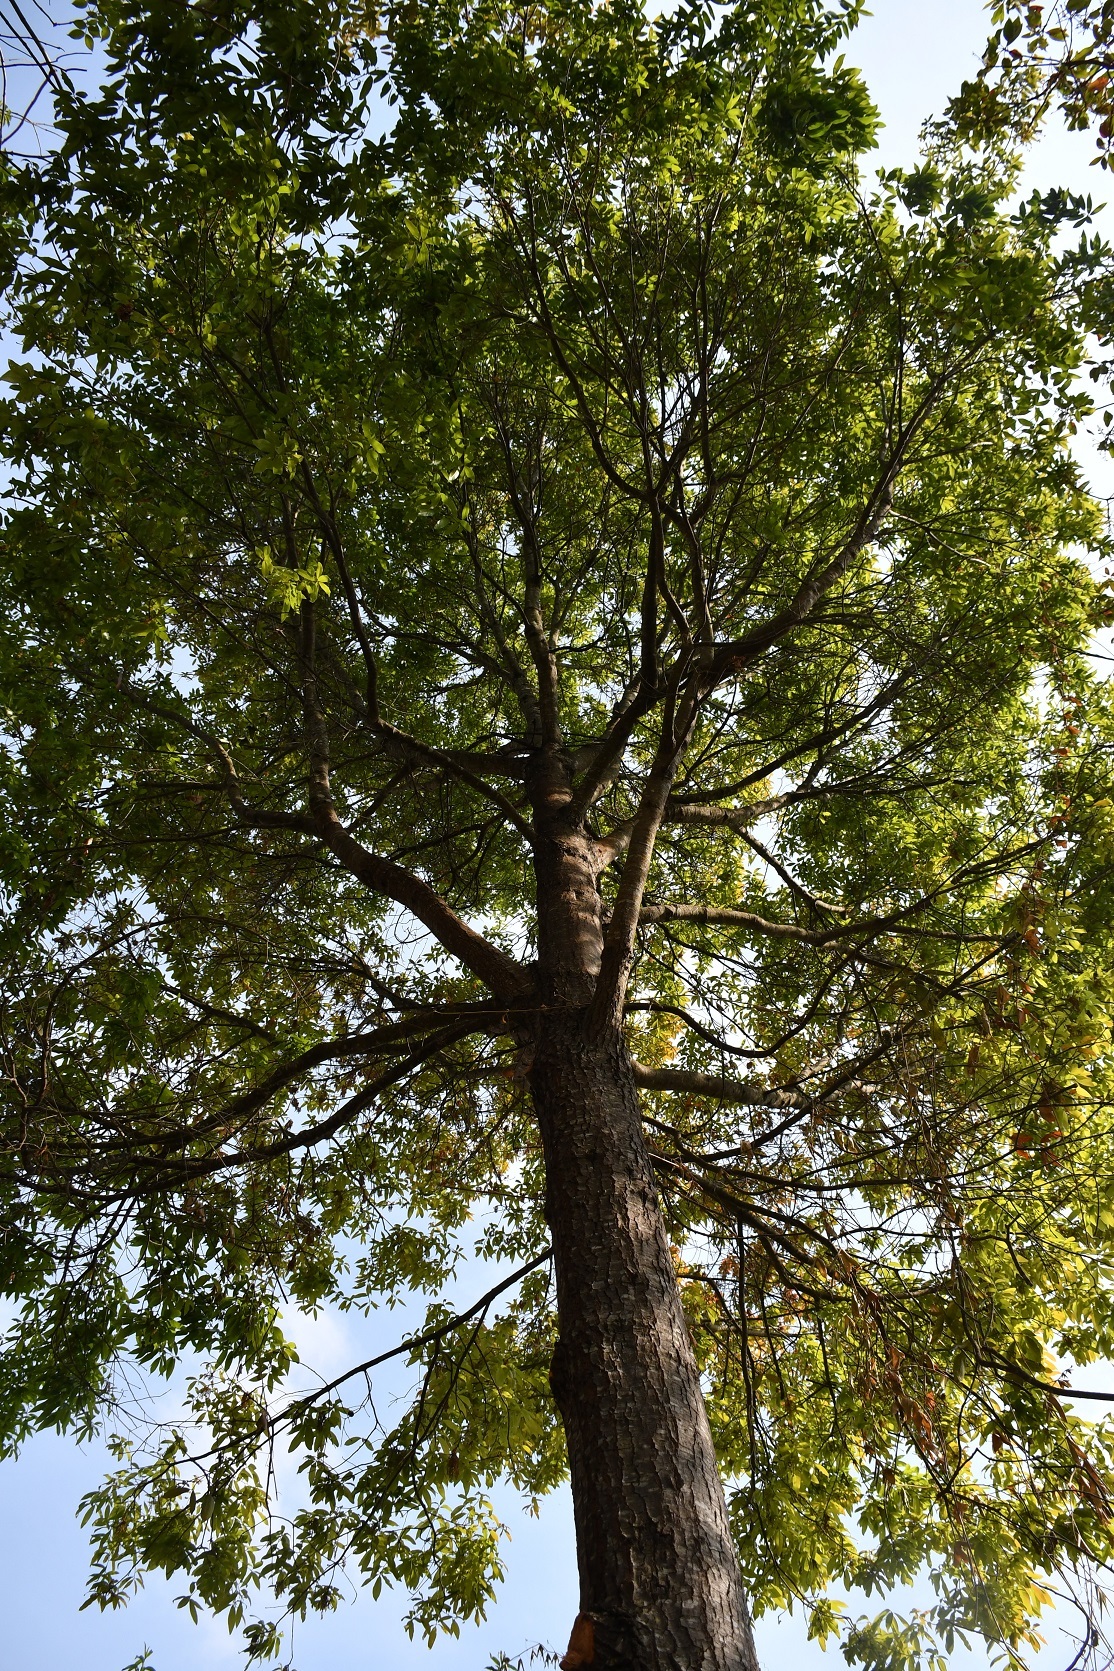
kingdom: Plantae
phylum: Tracheophyta
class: Magnoliopsida
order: Fagales
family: Fagaceae
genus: Quercus
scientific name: Quercus acatenangensis
